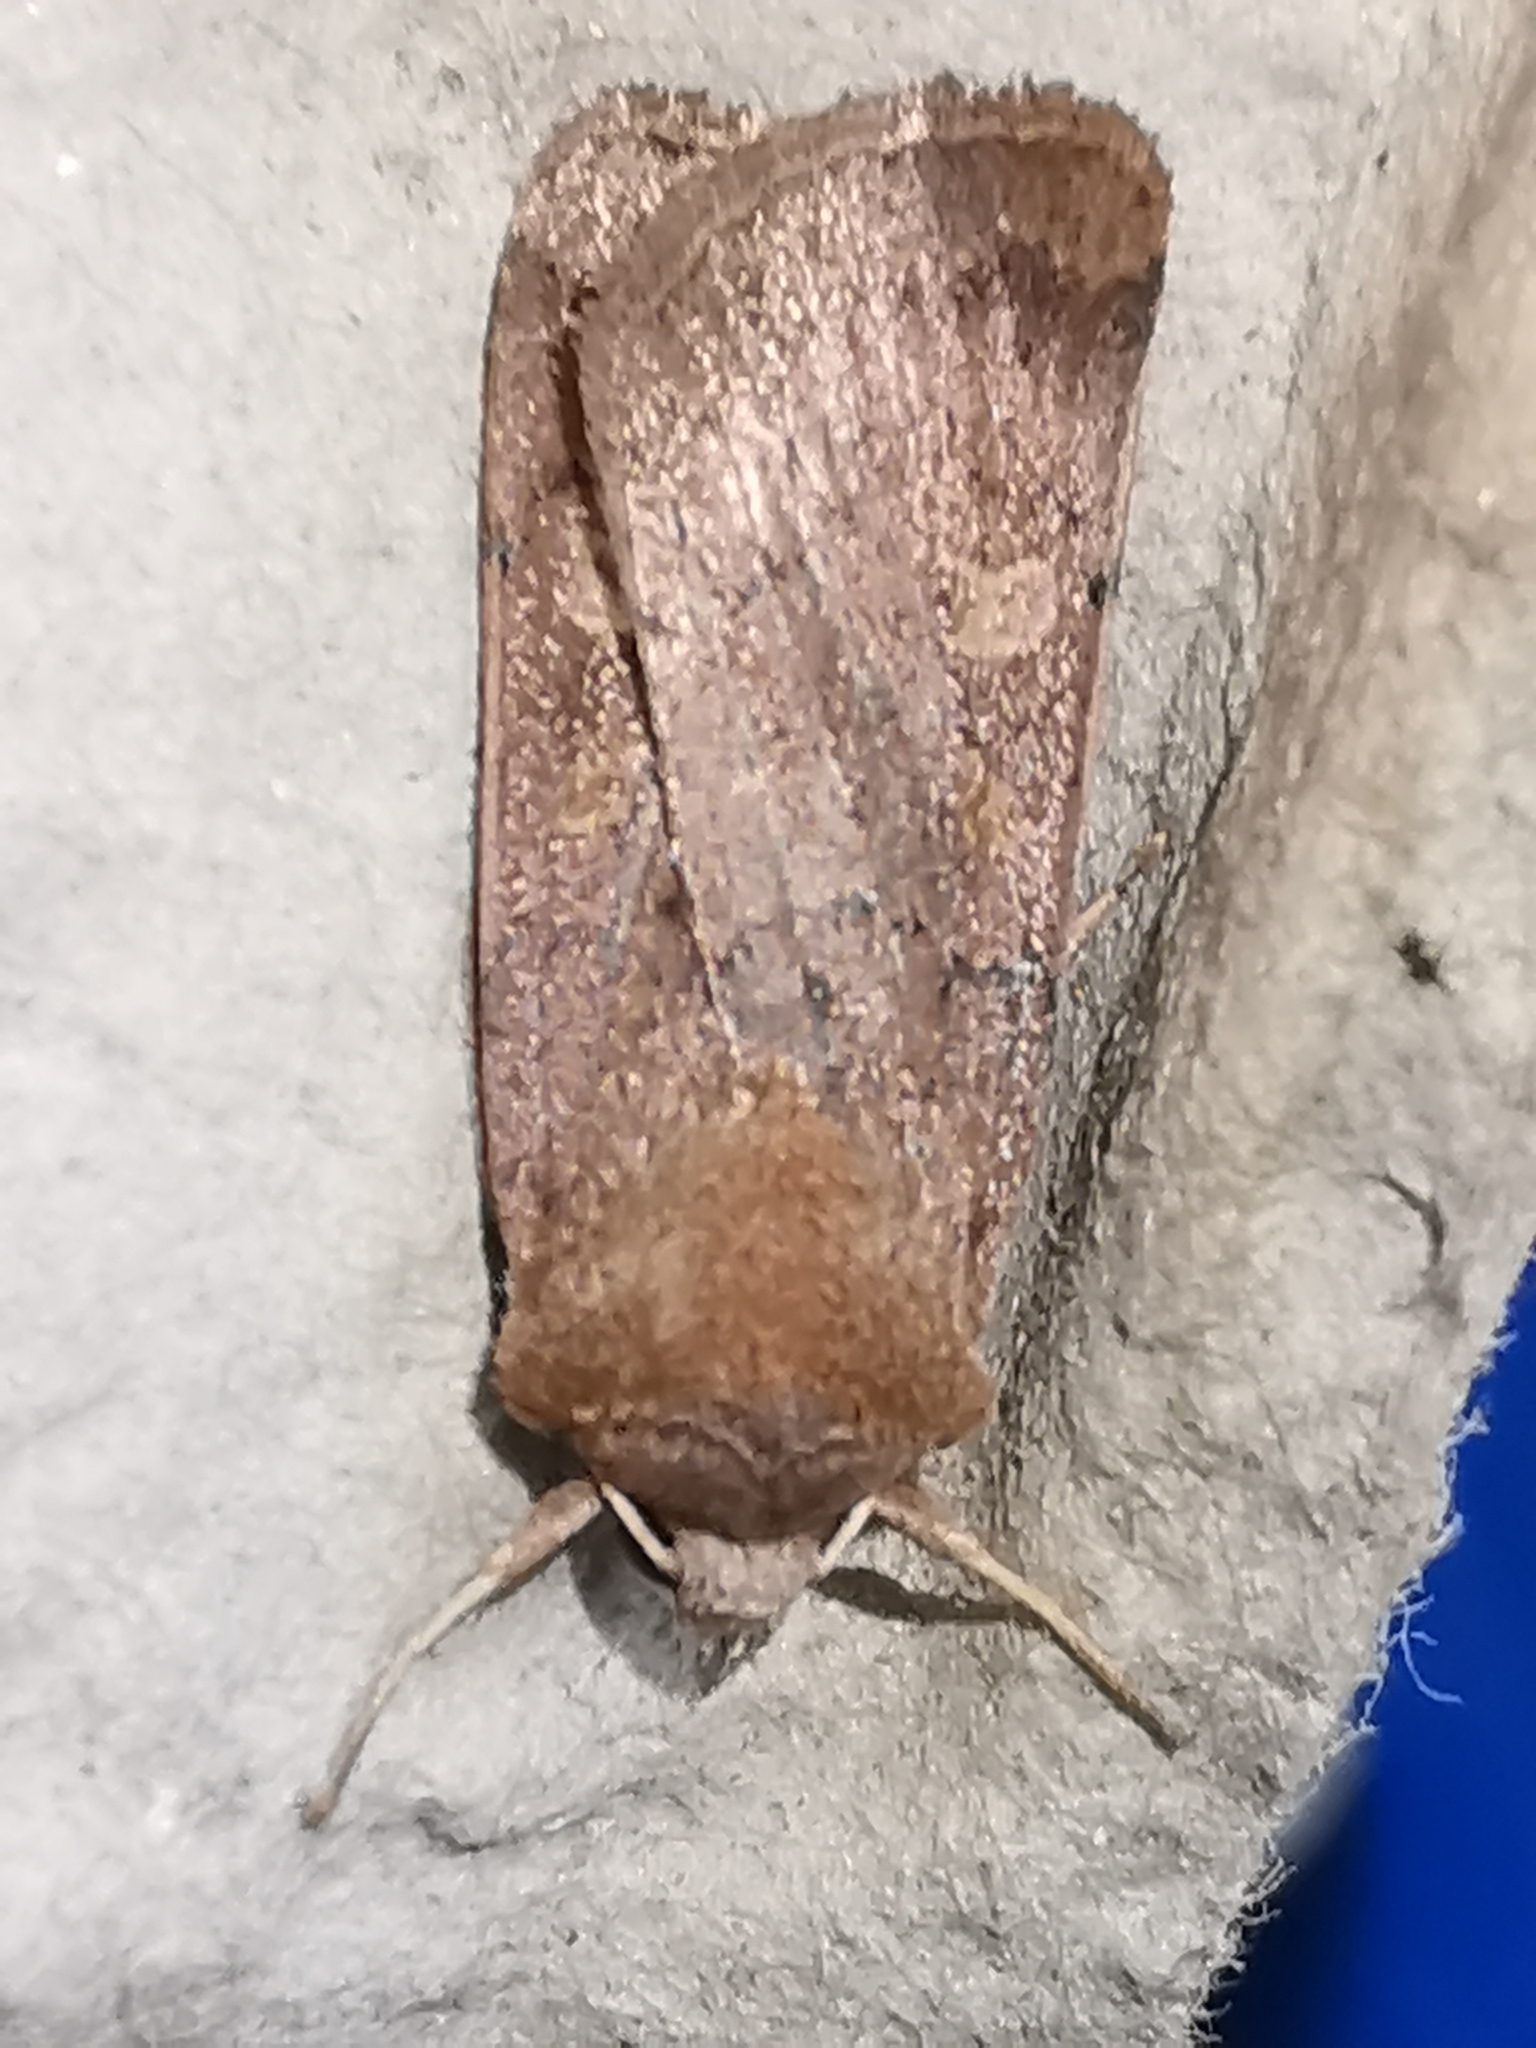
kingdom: Animalia
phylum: Arthropoda
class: Insecta
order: Lepidoptera
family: Noctuidae
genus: Xestia
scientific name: Xestia xanthographa
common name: Square-spot rustic
